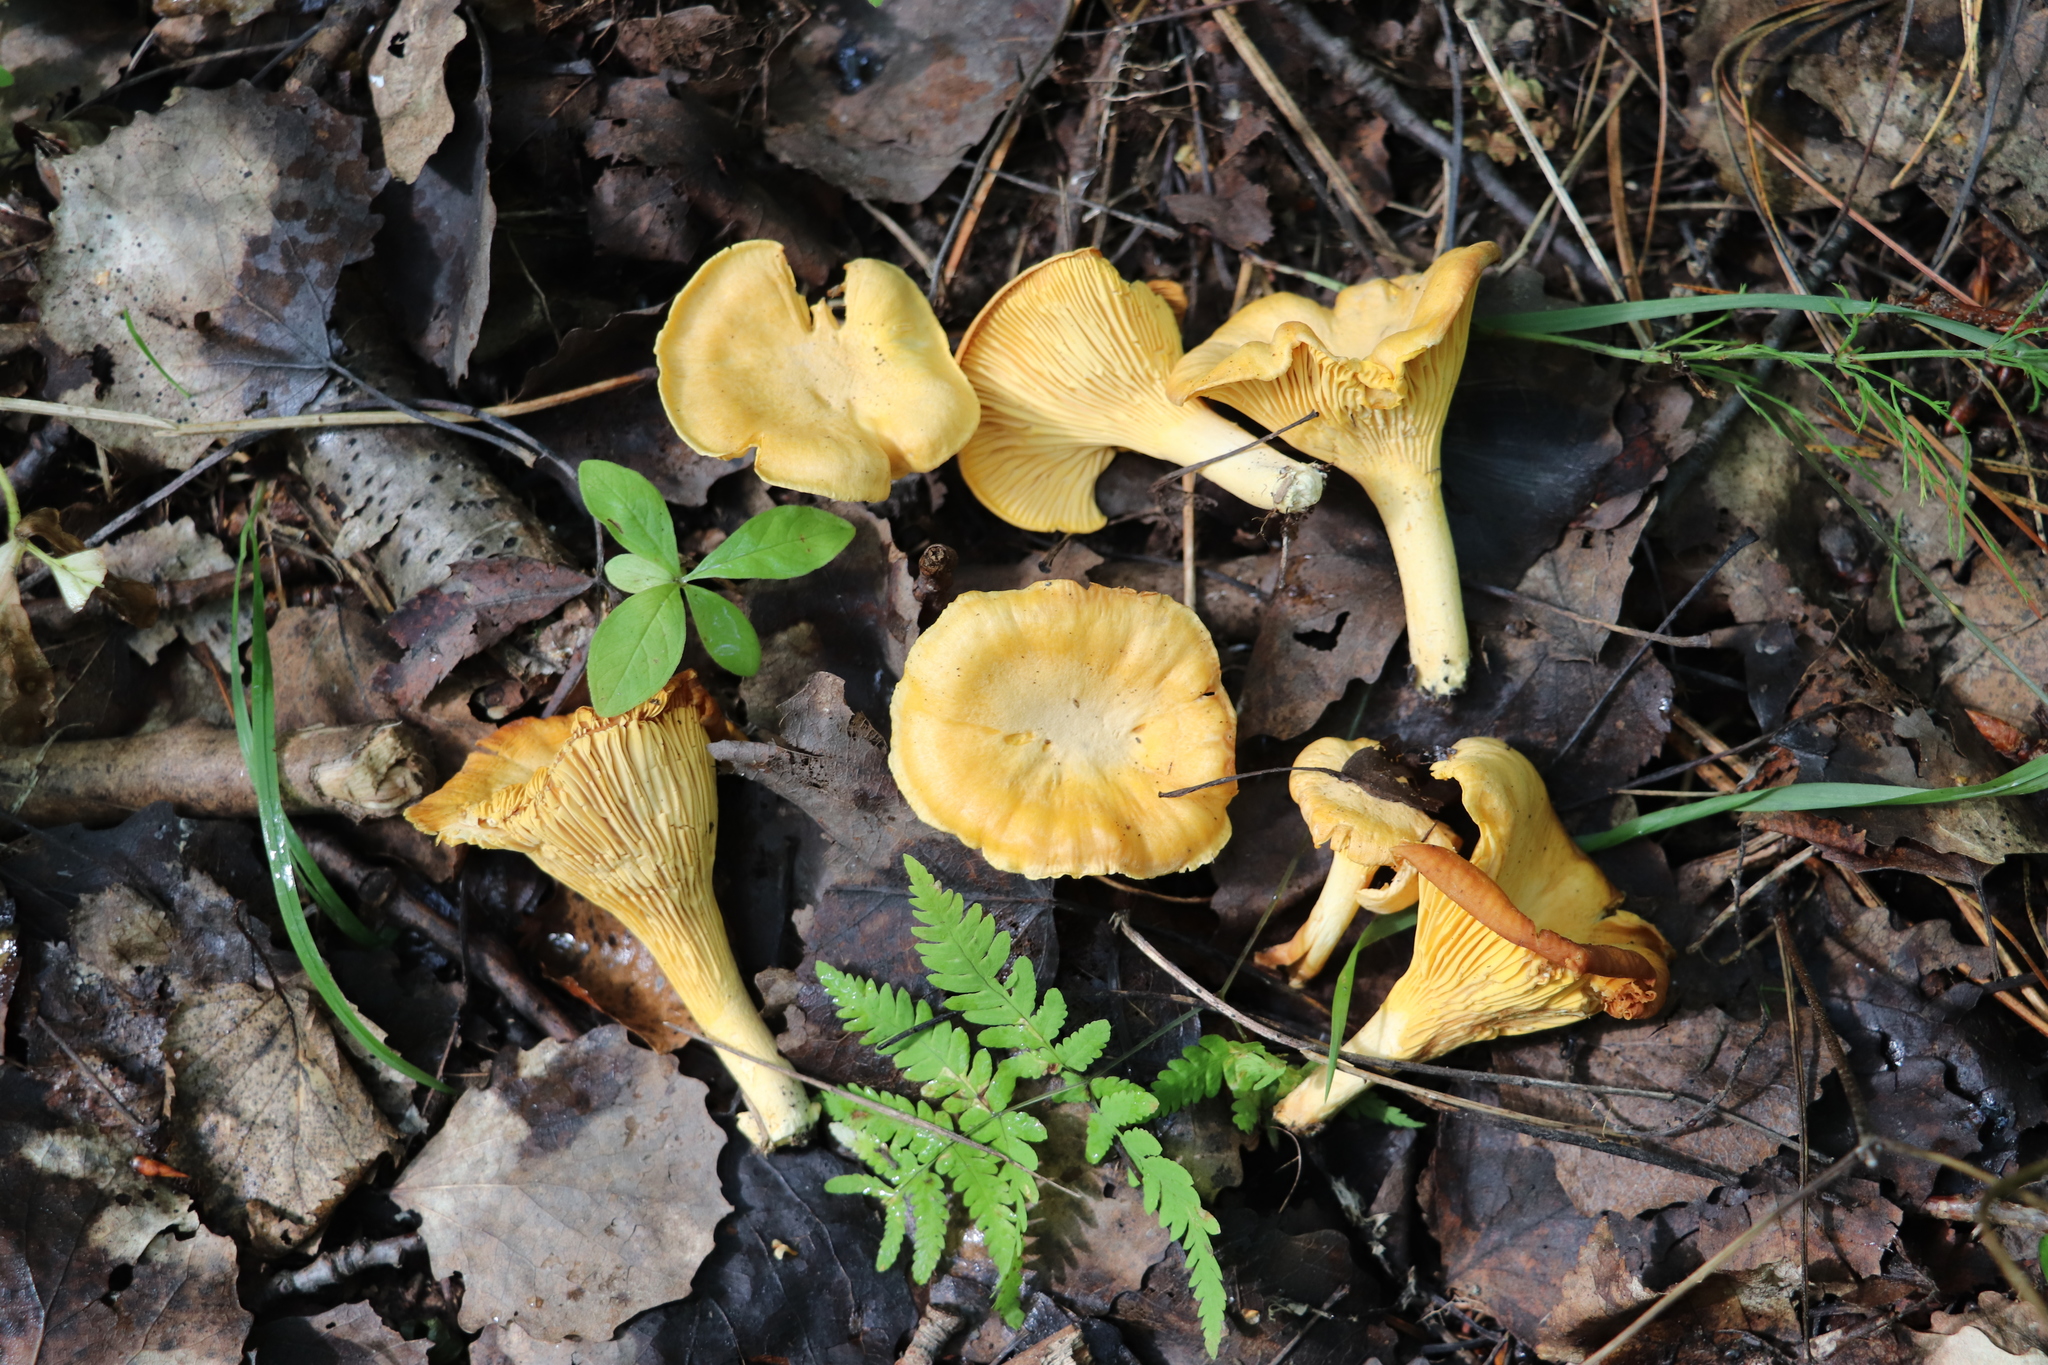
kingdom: Fungi
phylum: Basidiomycota
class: Agaricomycetes
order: Cantharellales
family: Hydnaceae
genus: Cantharellus
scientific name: Cantharellus cibarius
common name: Chanterelle
